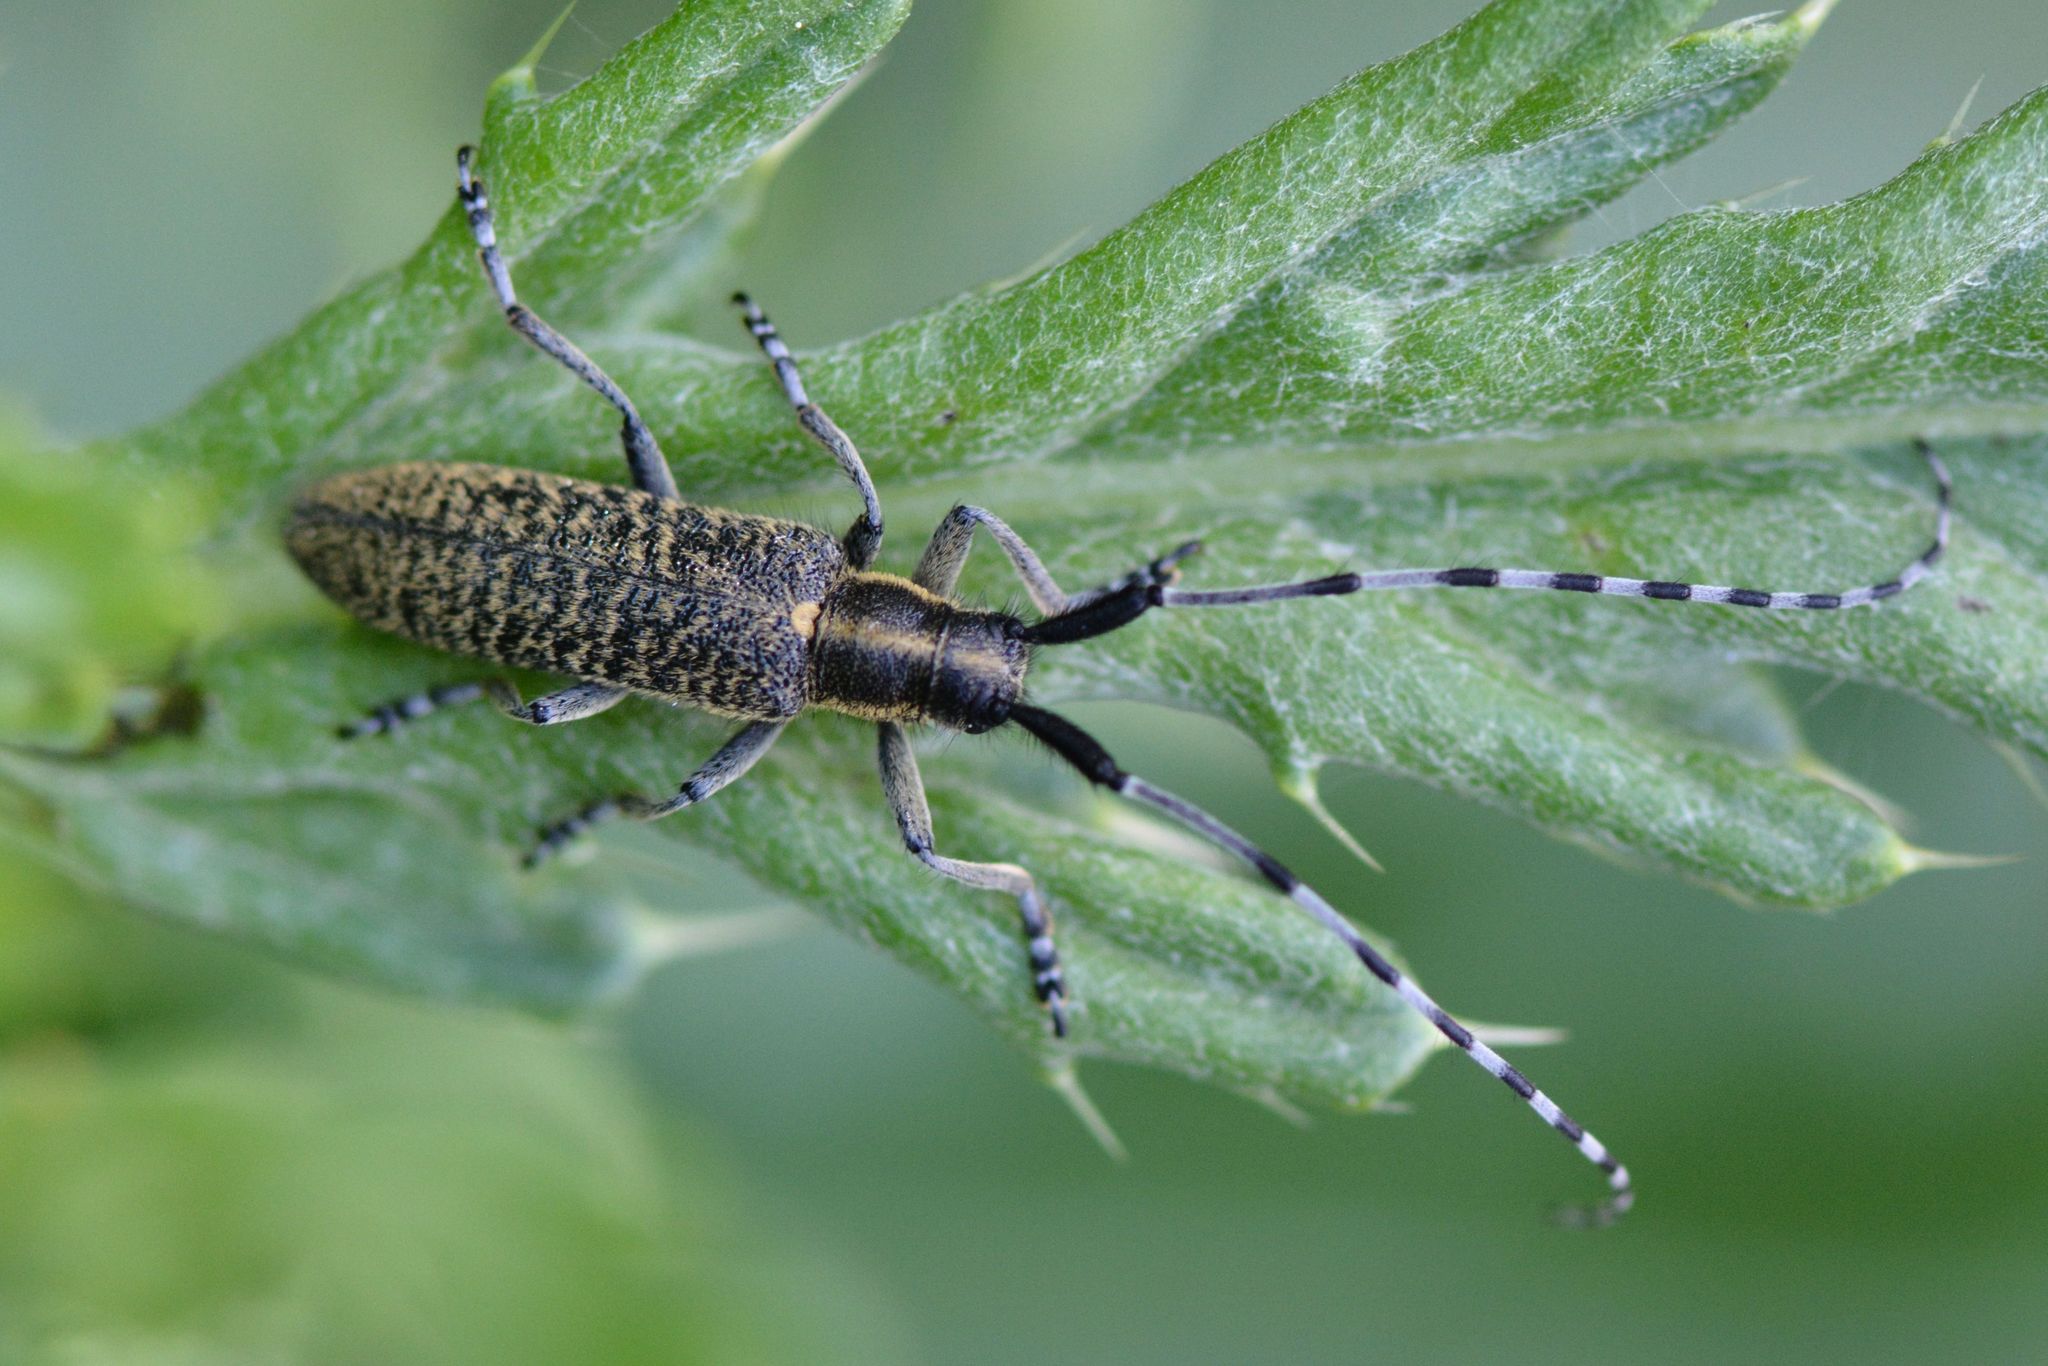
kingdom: Animalia
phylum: Arthropoda
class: Insecta
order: Coleoptera
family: Cerambycidae
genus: Agapanthia
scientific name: Agapanthia villosoviridescens
